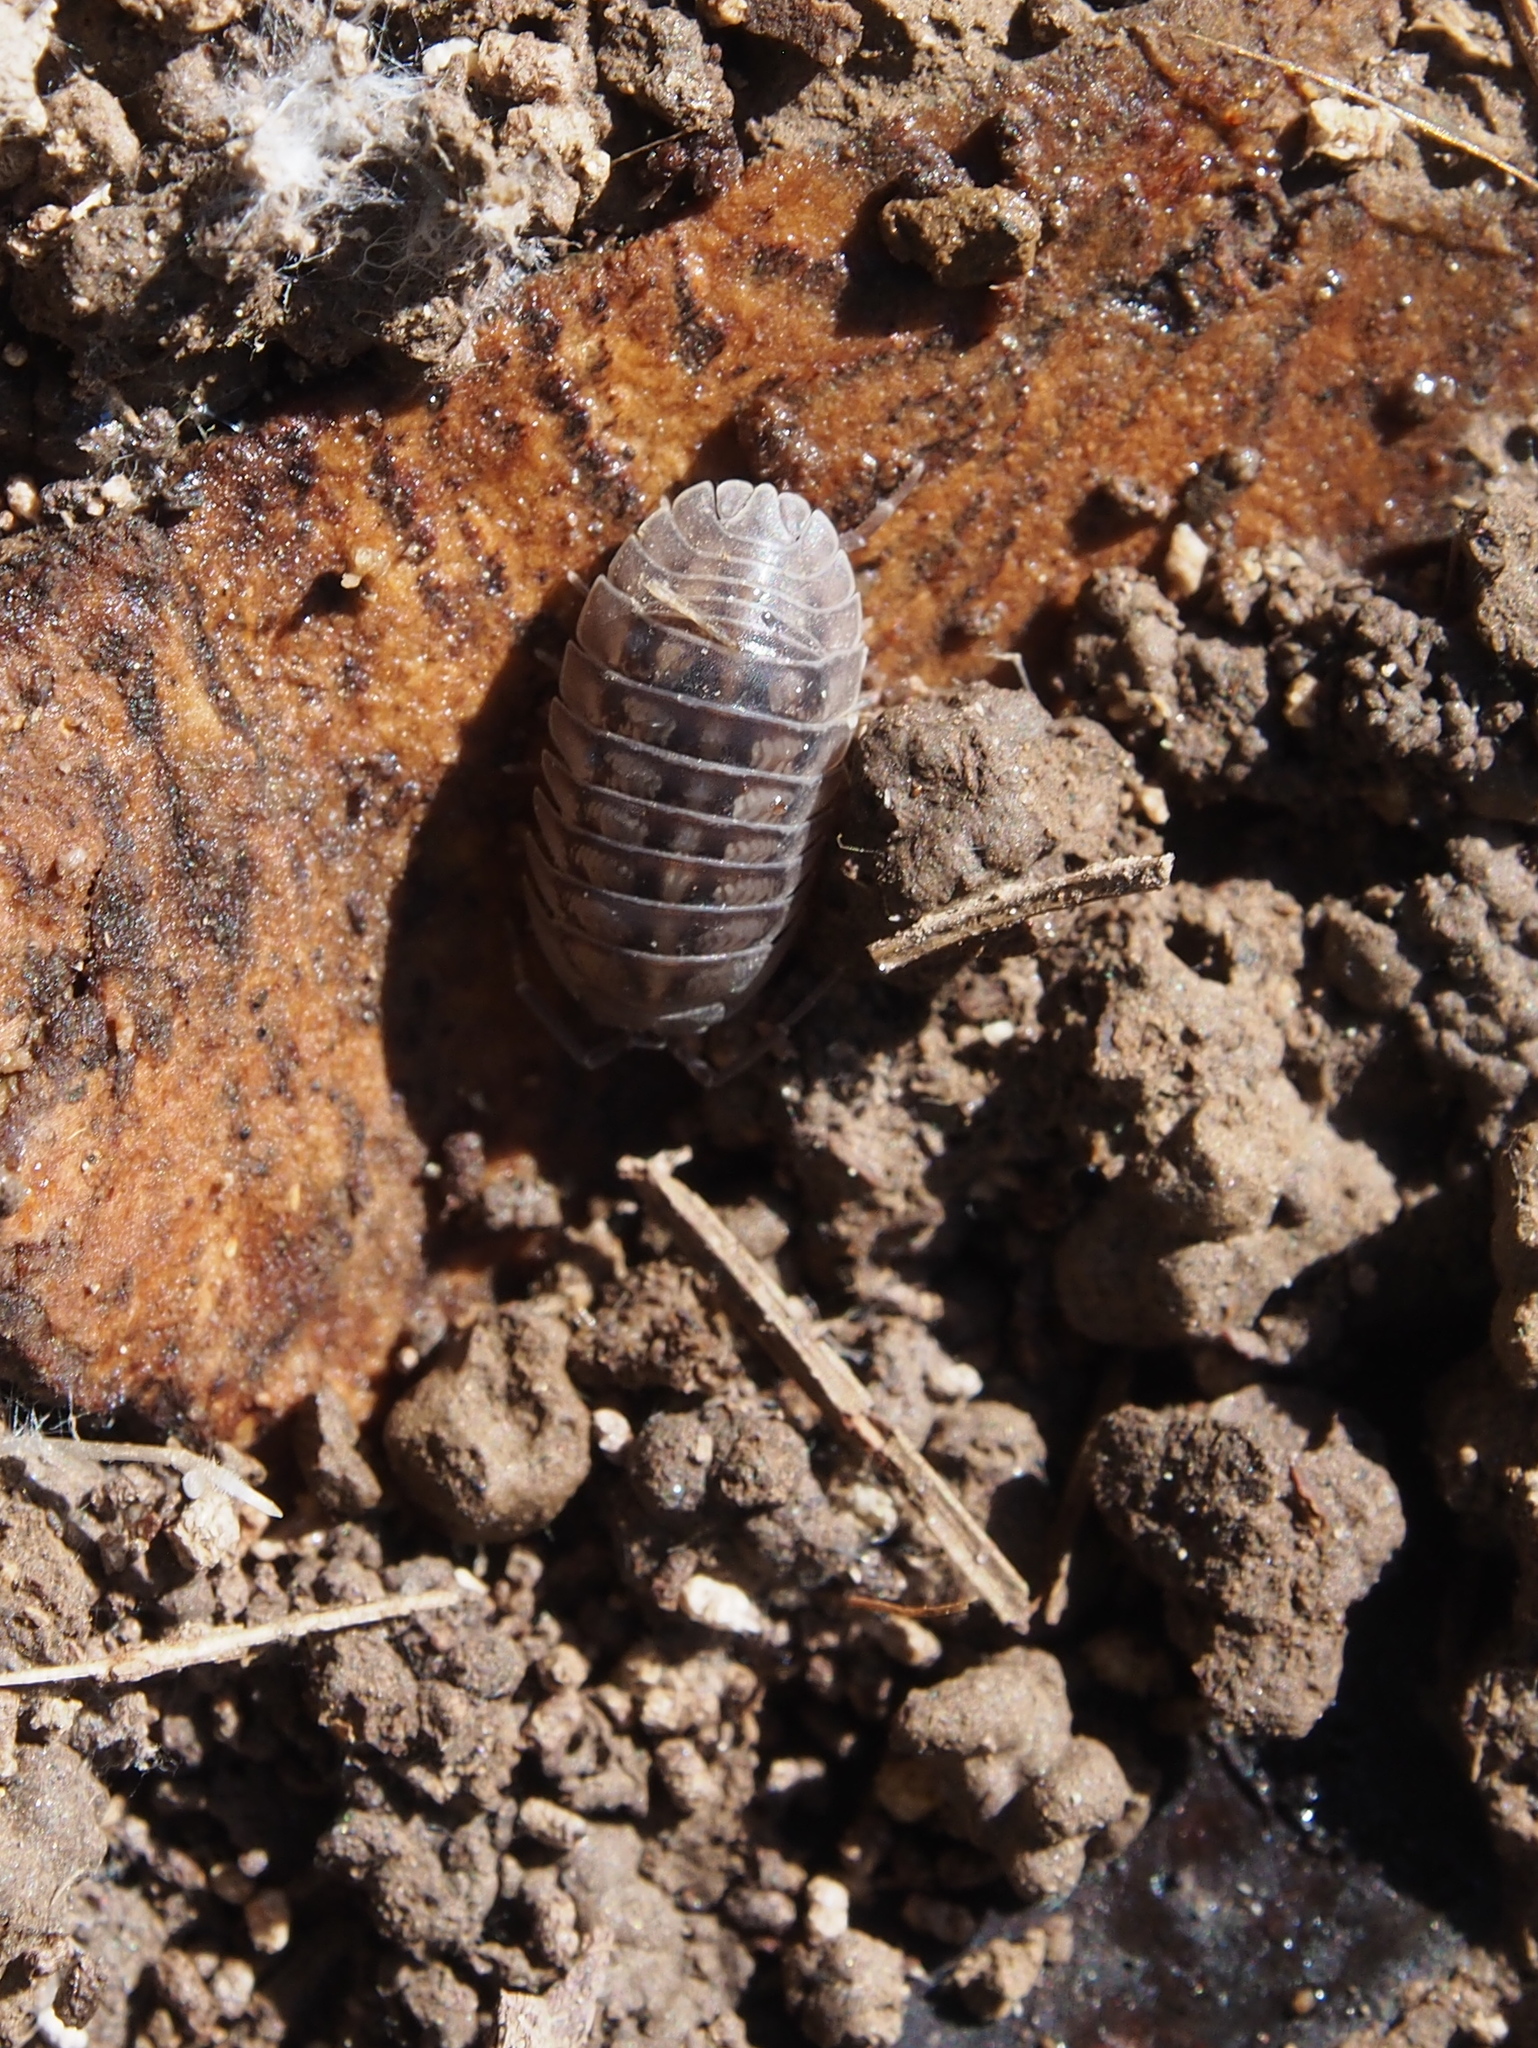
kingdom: Animalia
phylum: Arthropoda
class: Malacostraca
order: Isopoda
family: Armadillidiidae
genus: Armadillidium
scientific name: Armadillidium nasatum
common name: Isopod
